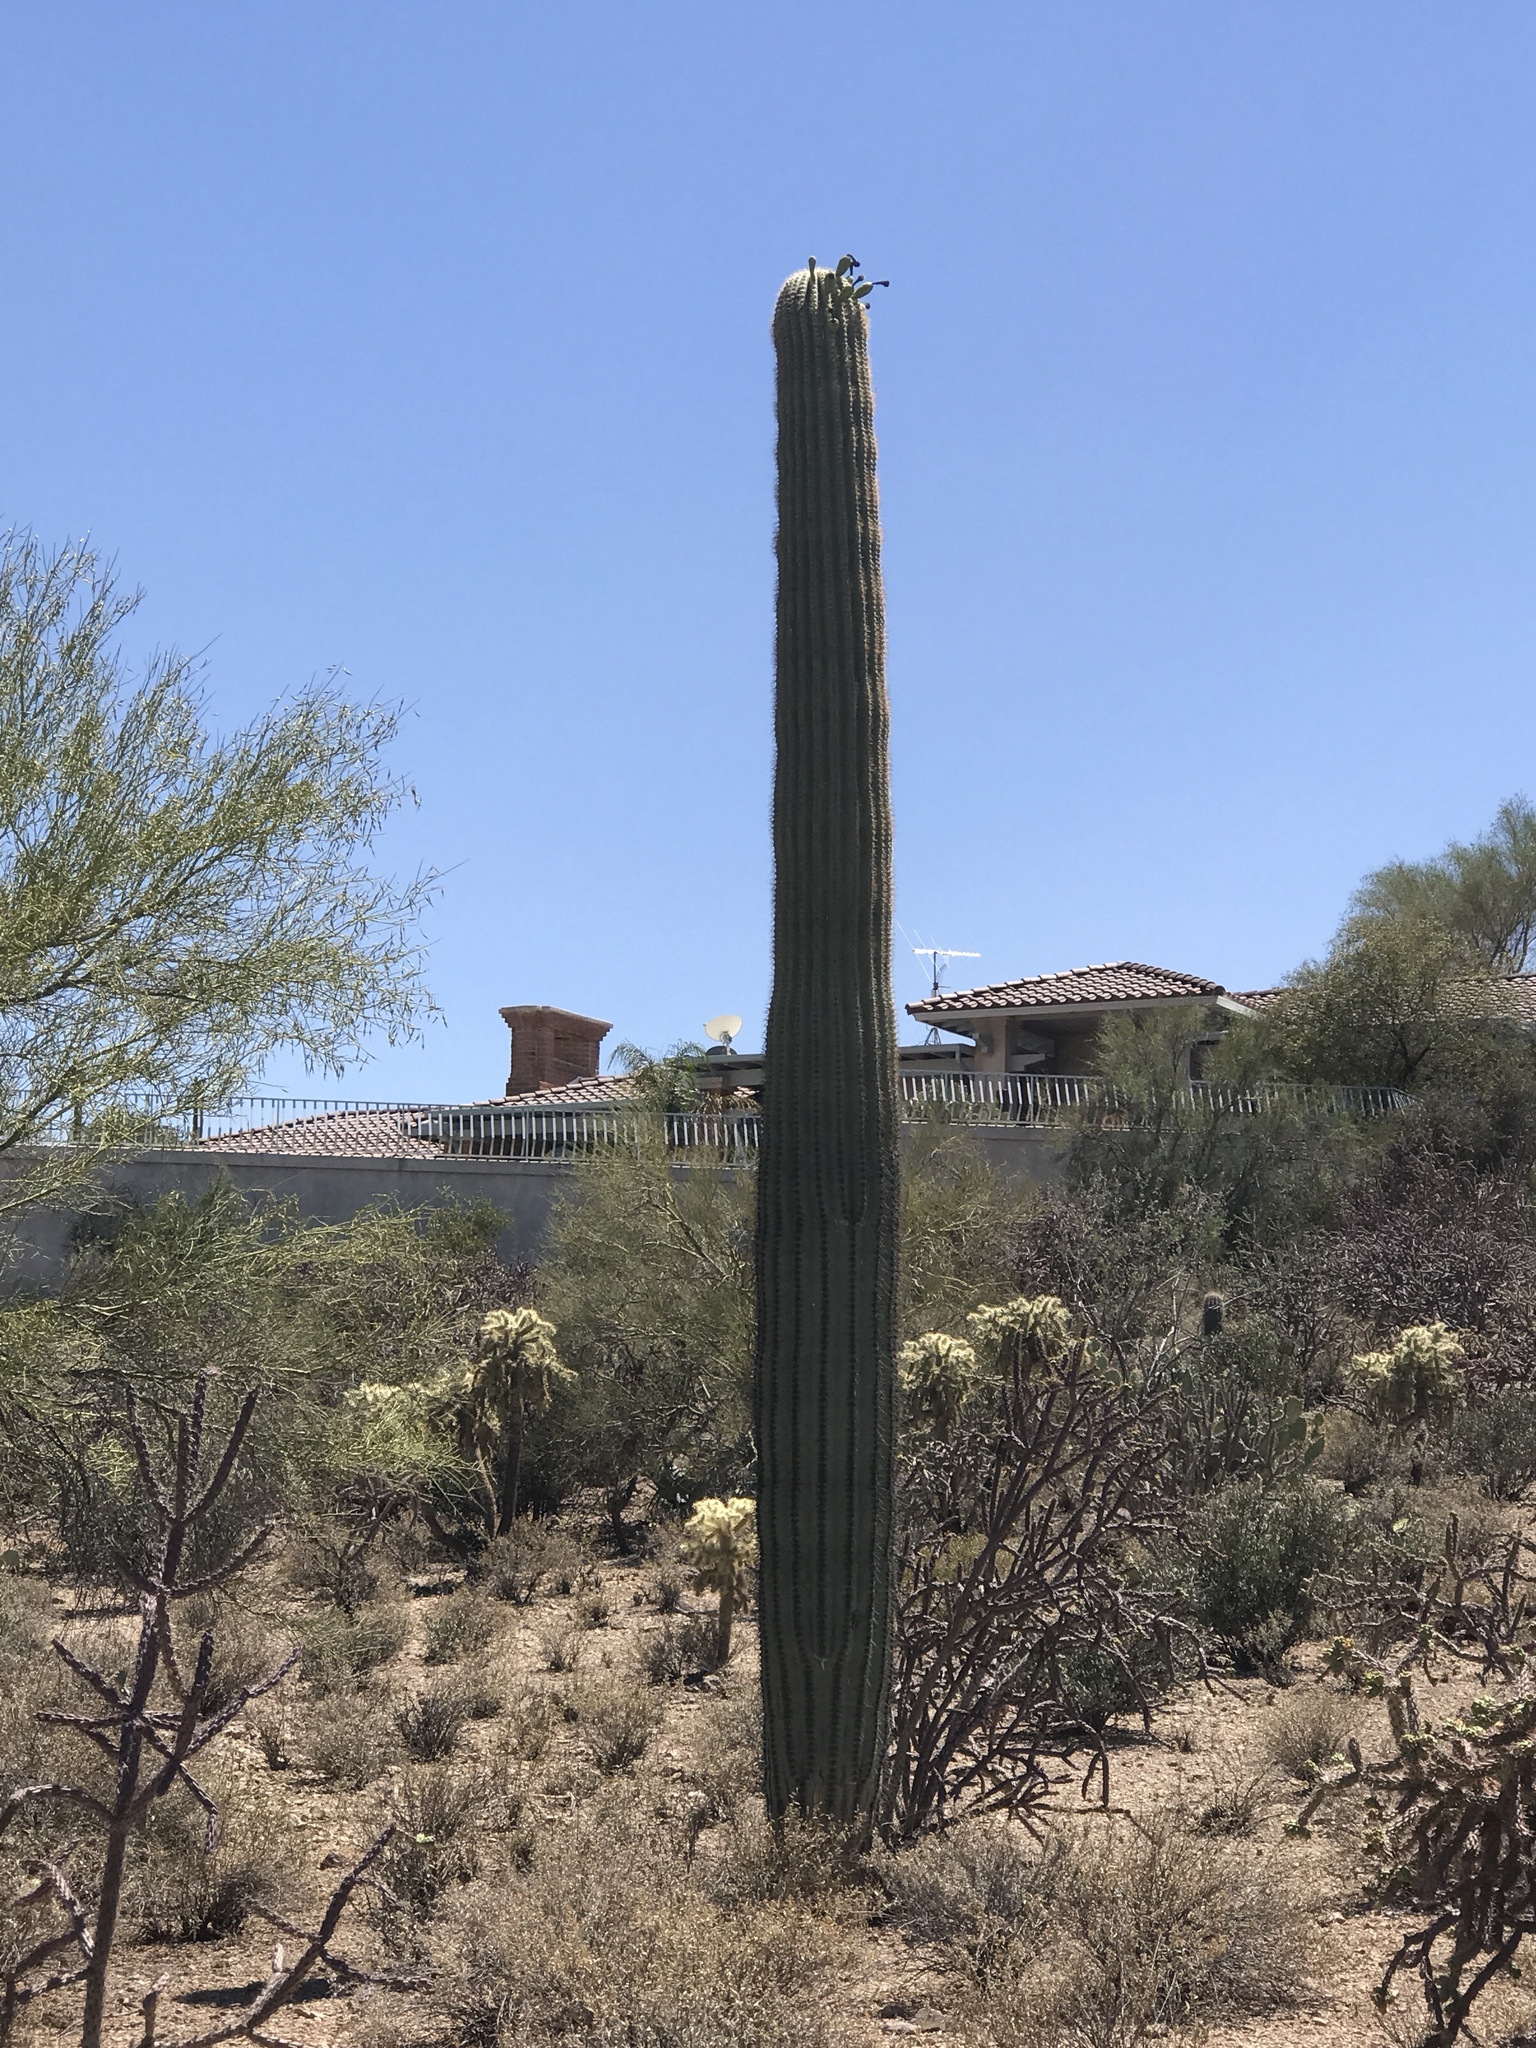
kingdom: Plantae
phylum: Tracheophyta
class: Magnoliopsida
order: Caryophyllales
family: Cactaceae
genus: Carnegiea
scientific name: Carnegiea gigantea
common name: Saguaro
